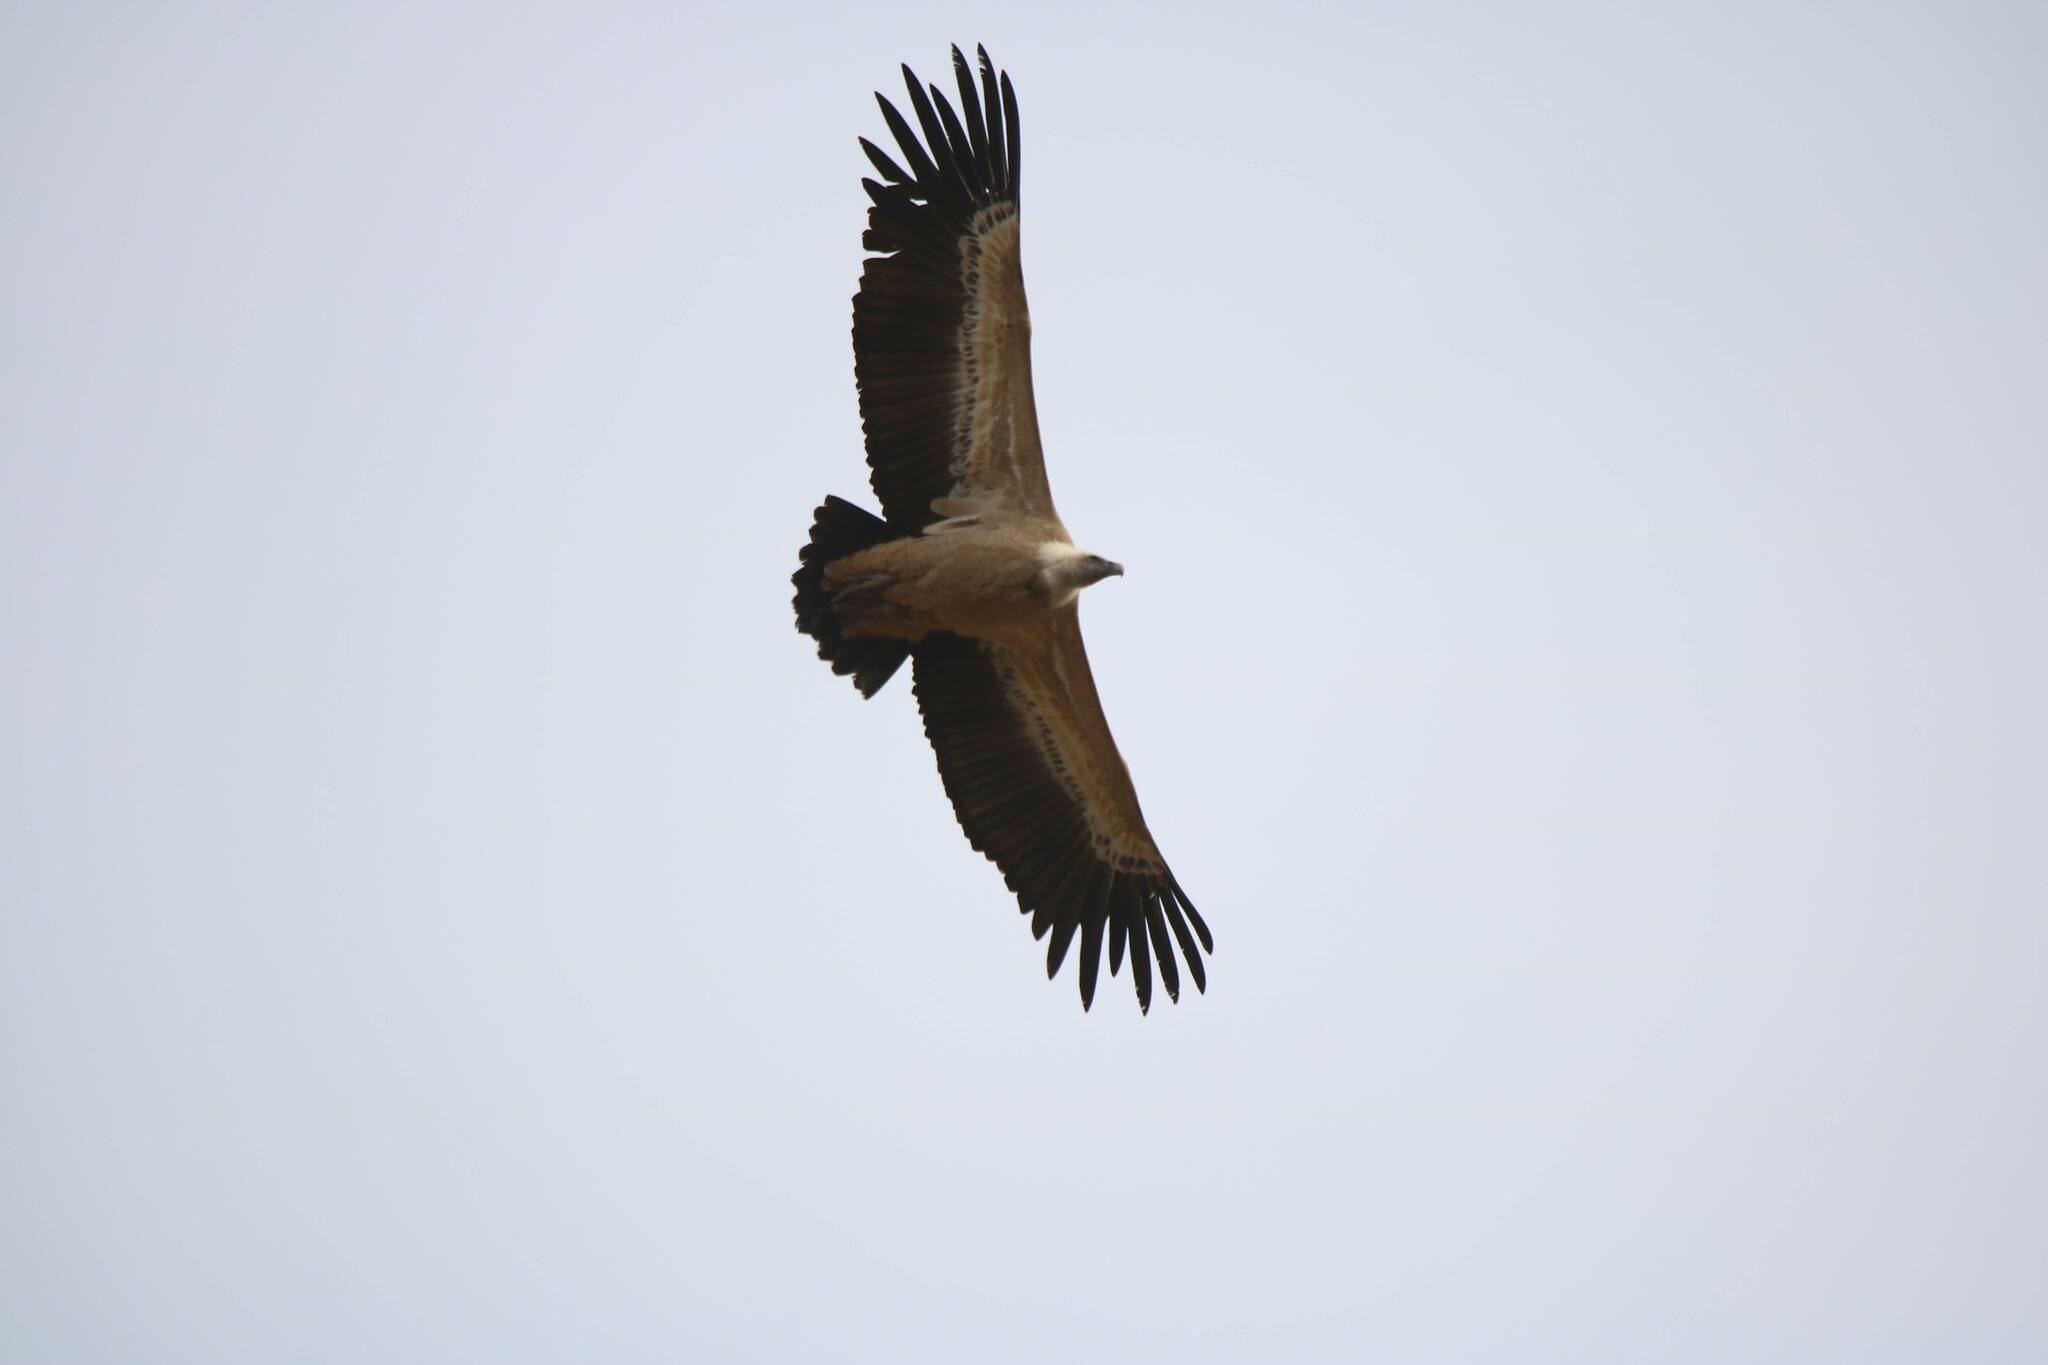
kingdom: Animalia
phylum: Chordata
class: Aves
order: Accipitriformes
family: Accipitridae
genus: Gyps
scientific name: Gyps fulvus
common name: Griffon vulture
